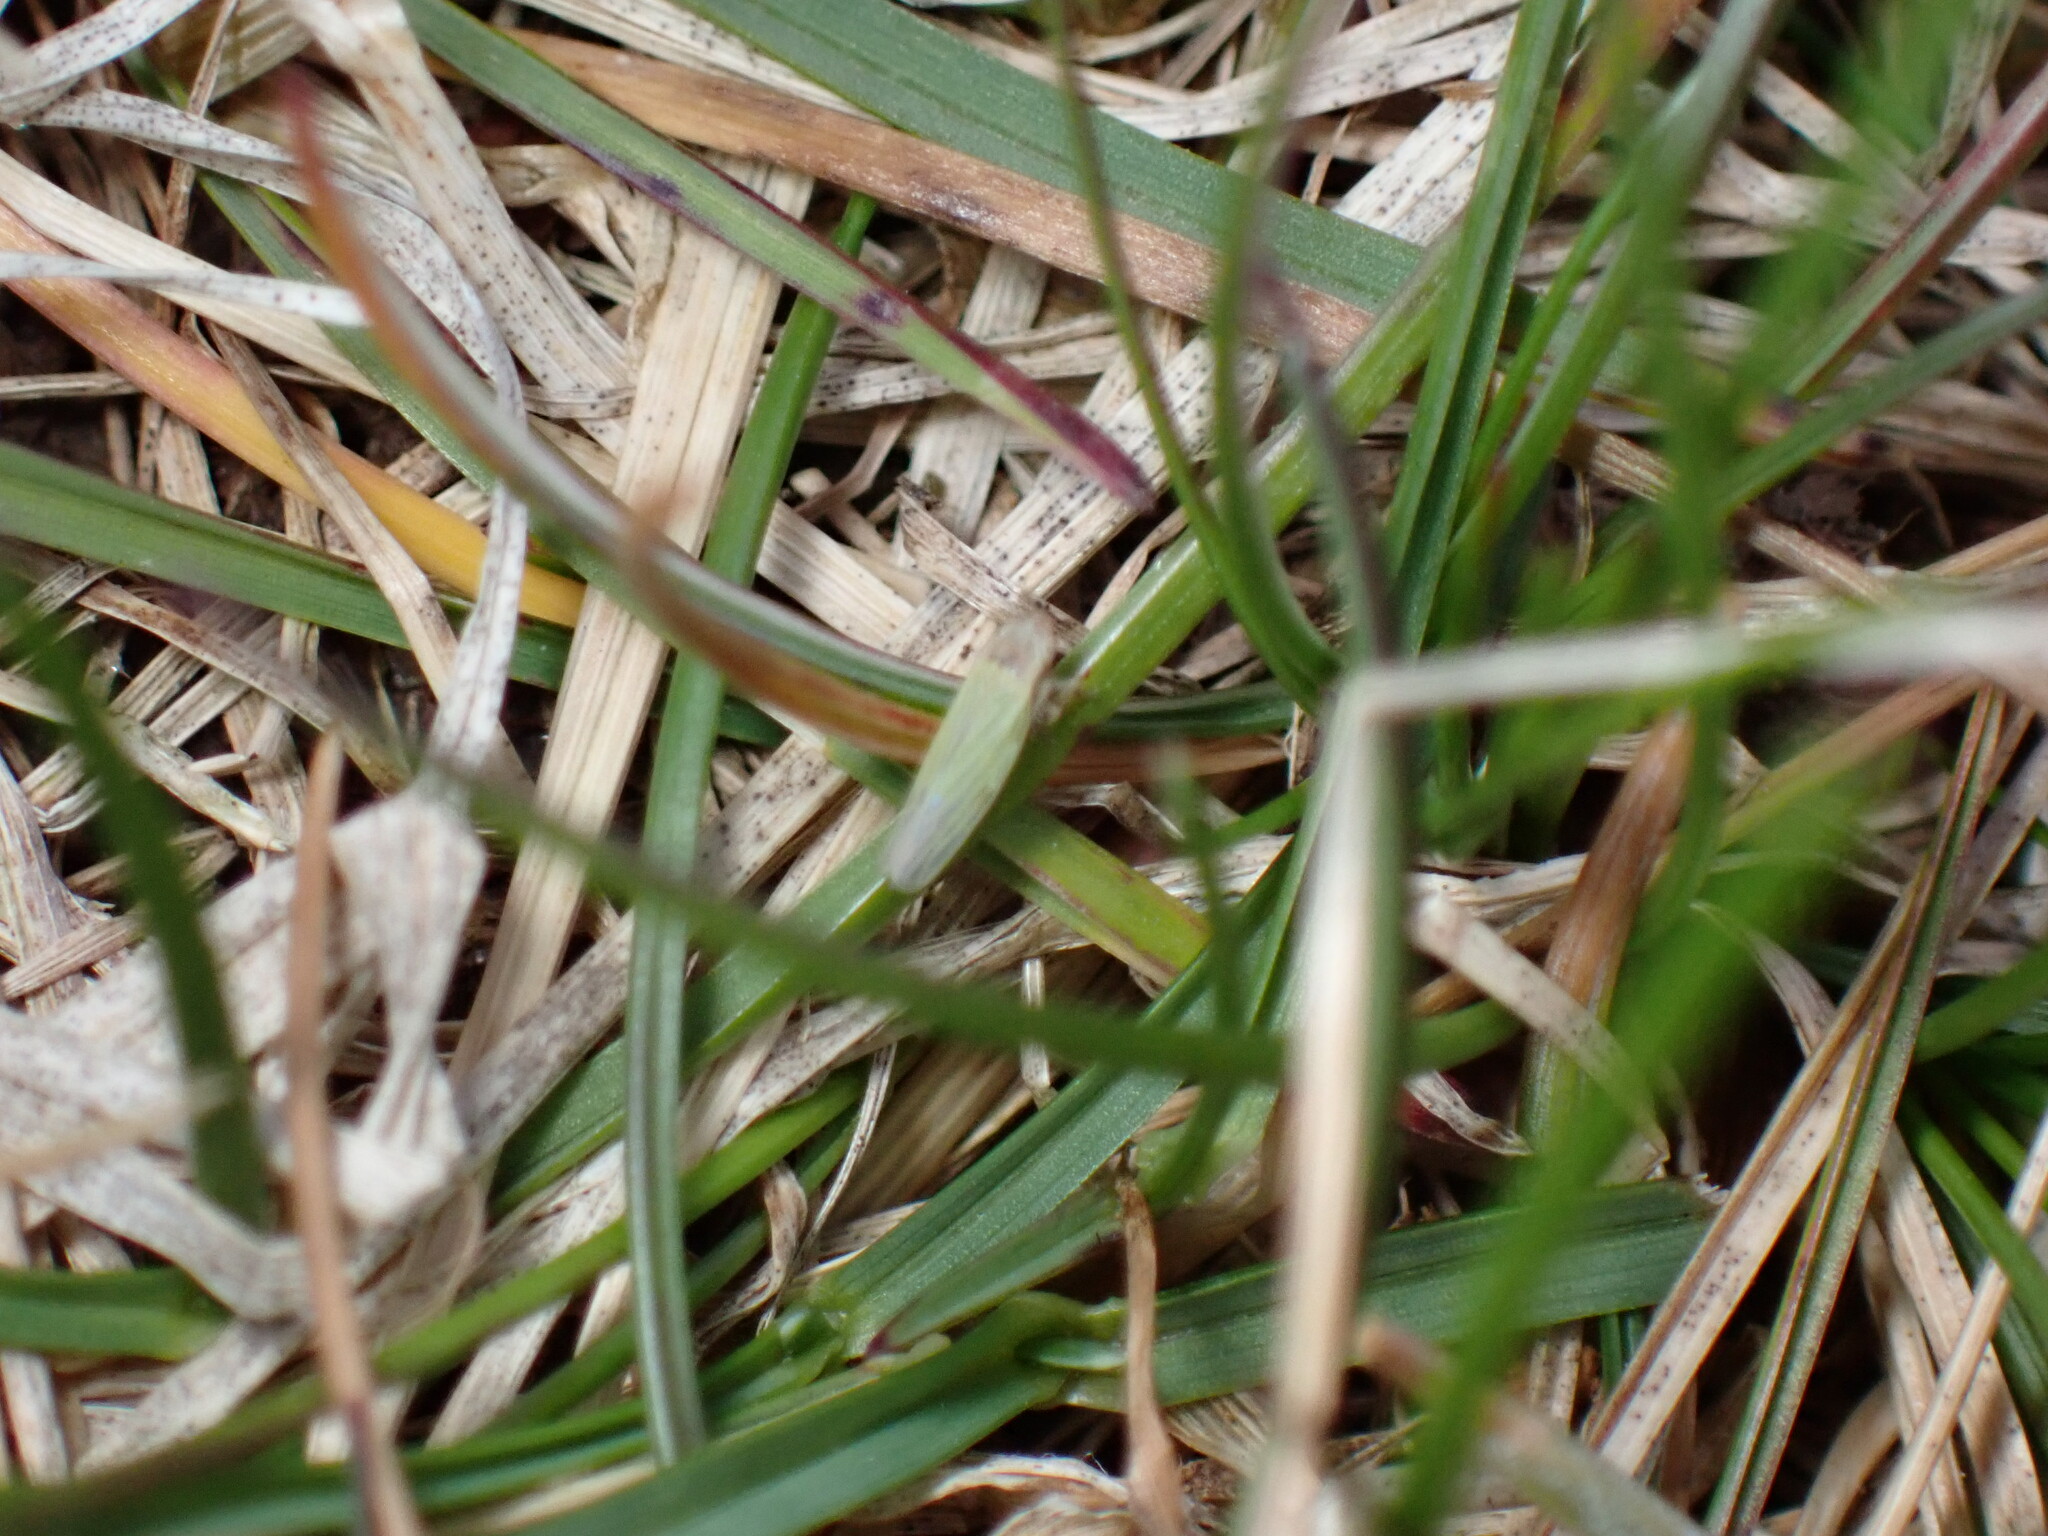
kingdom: Animalia
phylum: Arthropoda
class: Insecta
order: Hemiptera
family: Cicadellidae
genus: Dikraneura
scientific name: Dikraneura arizona
